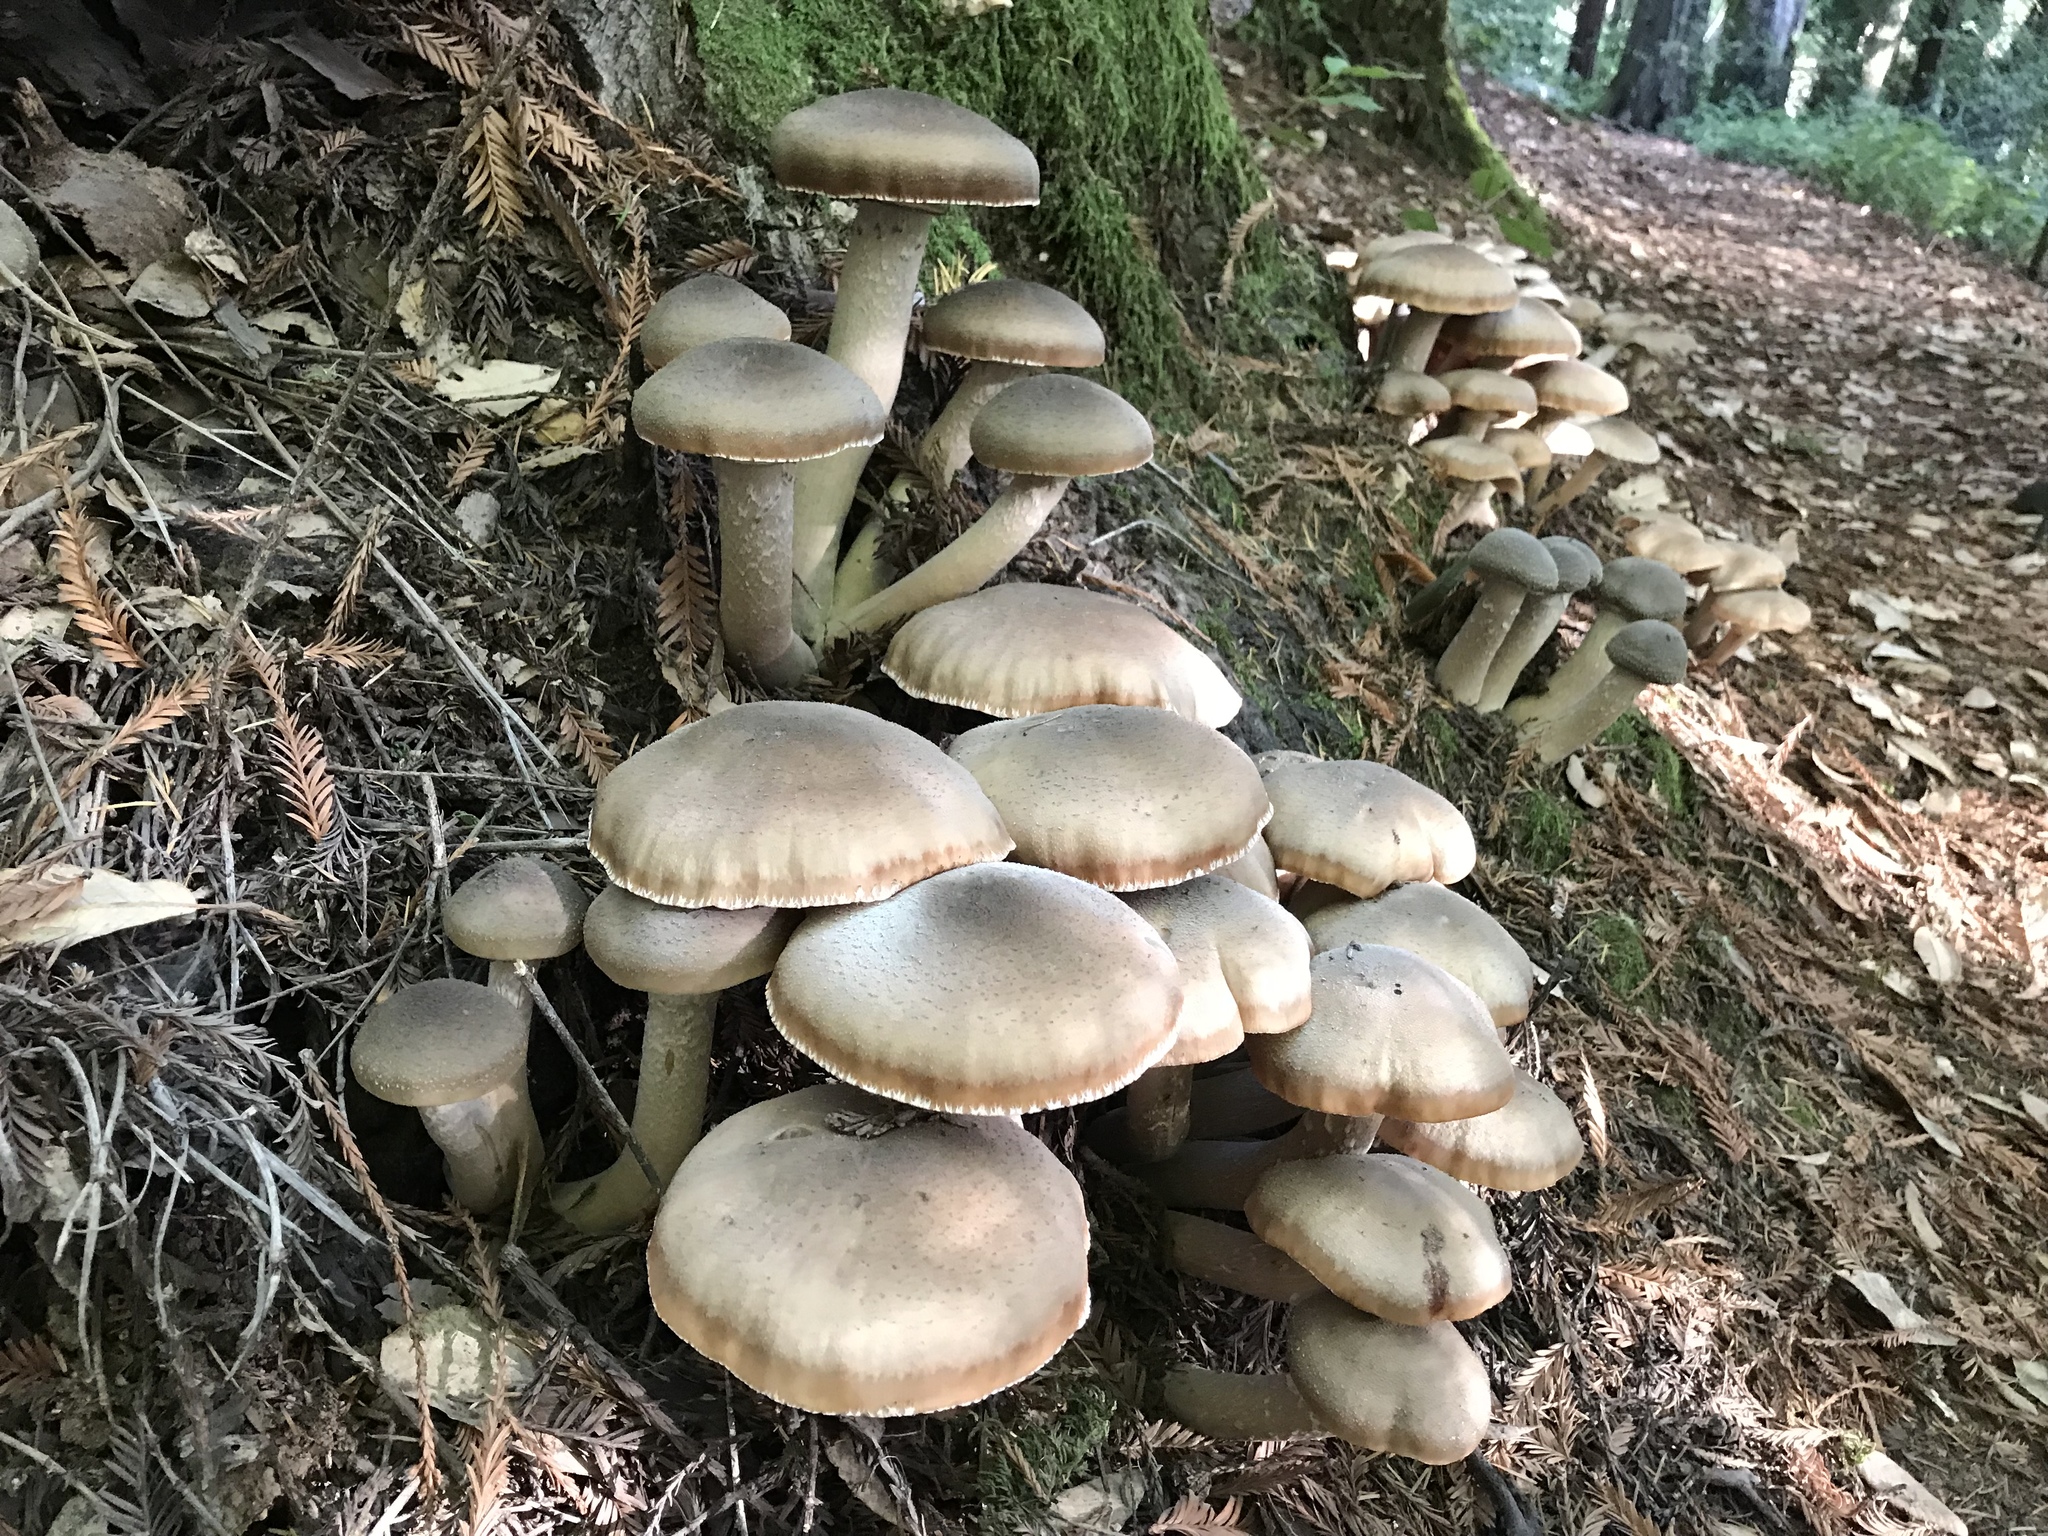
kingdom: Fungi
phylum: Basidiomycota
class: Agaricomycetes
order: Agaricales
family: Physalacriaceae
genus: Armillaria
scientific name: Armillaria mellea
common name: Honey fungus
